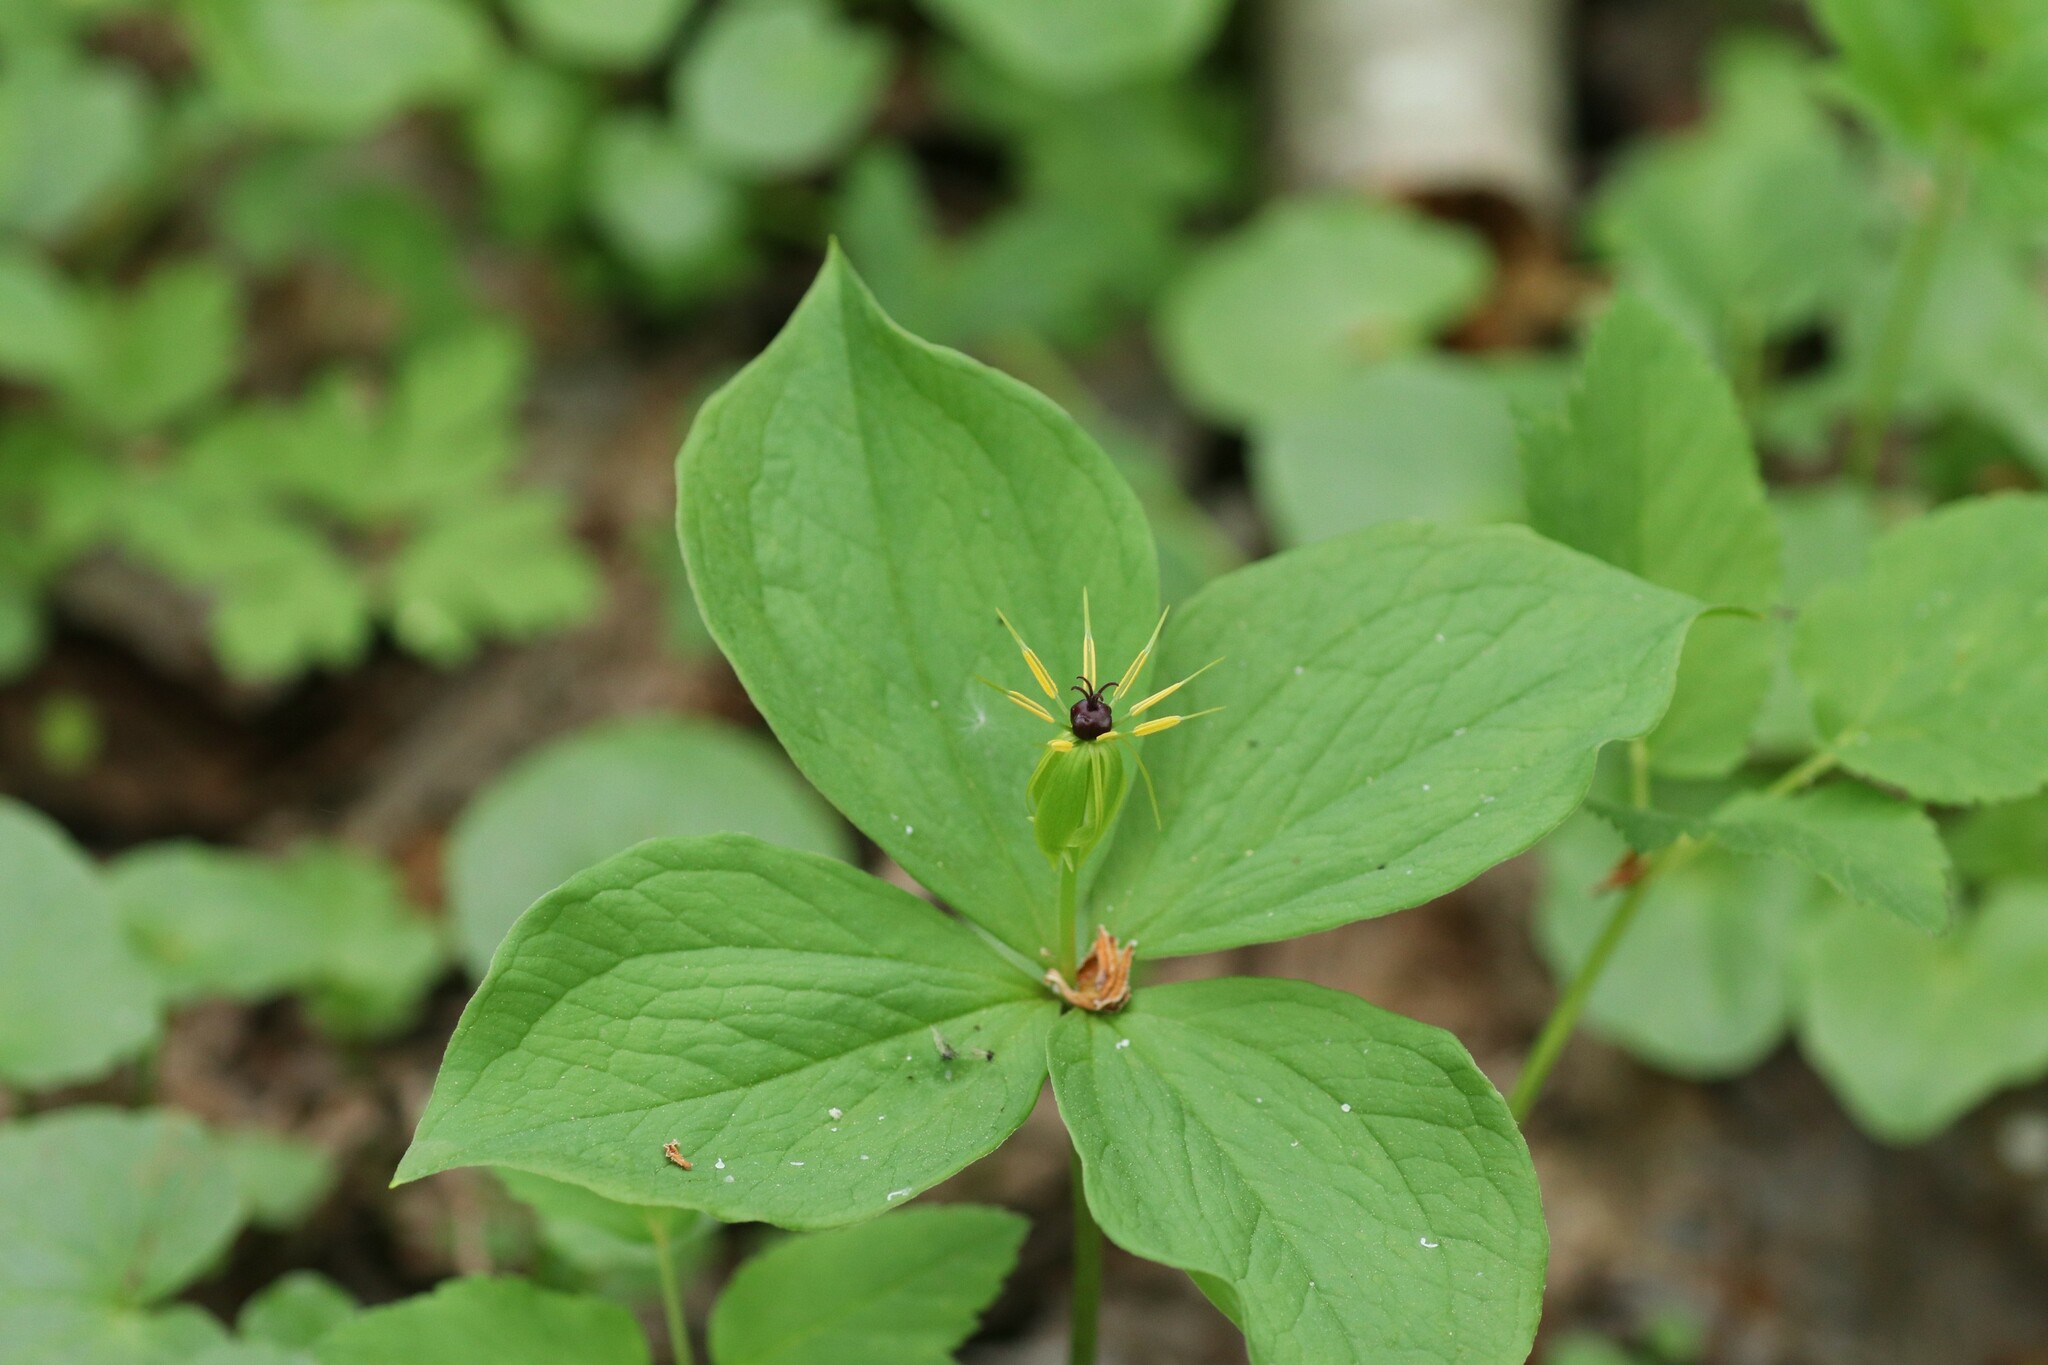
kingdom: Plantae
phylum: Tracheophyta
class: Liliopsida
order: Liliales
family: Melanthiaceae
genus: Paris
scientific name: Paris quadrifolia
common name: Herb-paris
